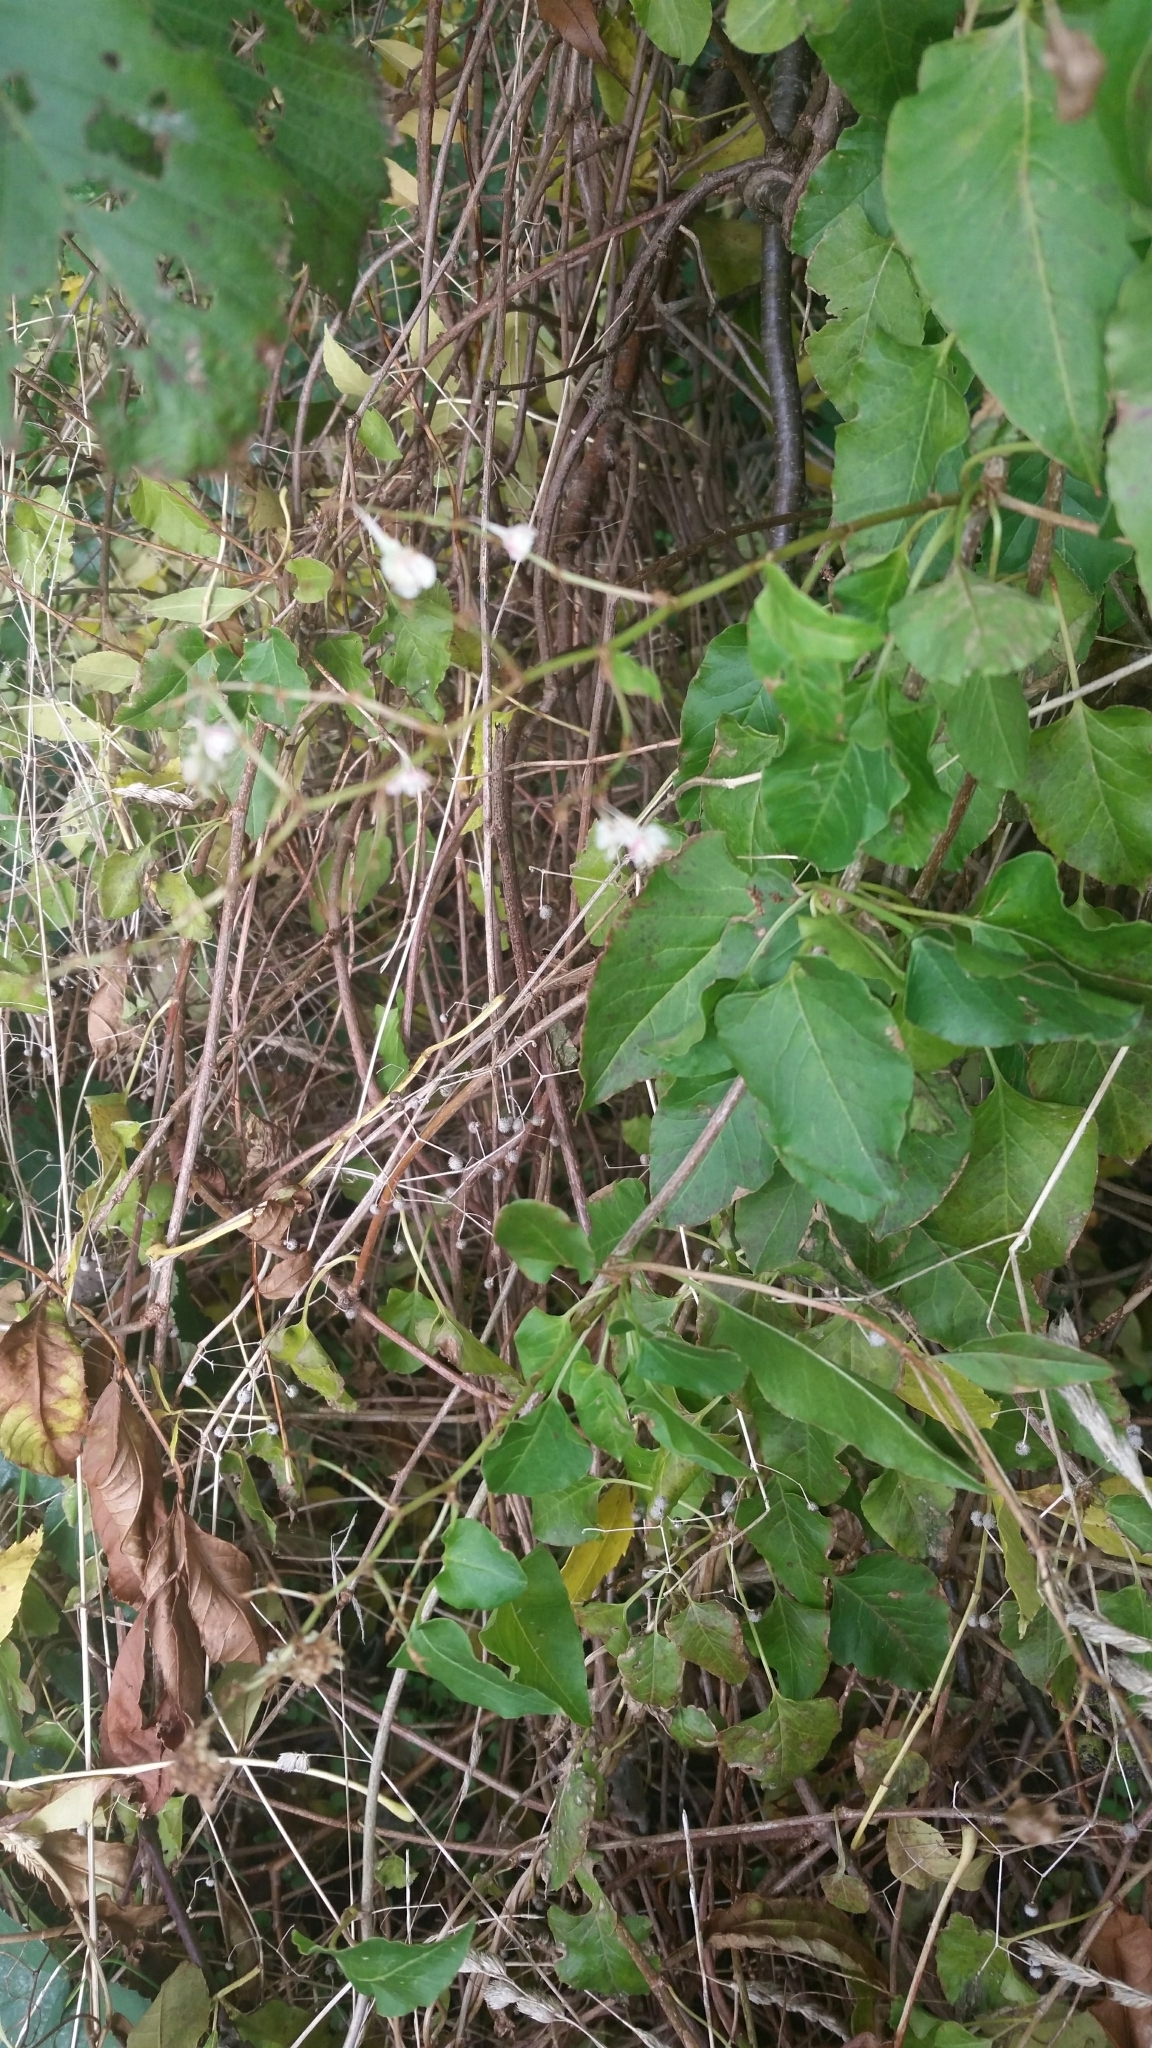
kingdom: Plantae
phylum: Tracheophyta
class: Magnoliopsida
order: Caryophyllales
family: Polygonaceae
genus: Fallopia
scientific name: Fallopia baldschuanica
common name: Russian-vine
